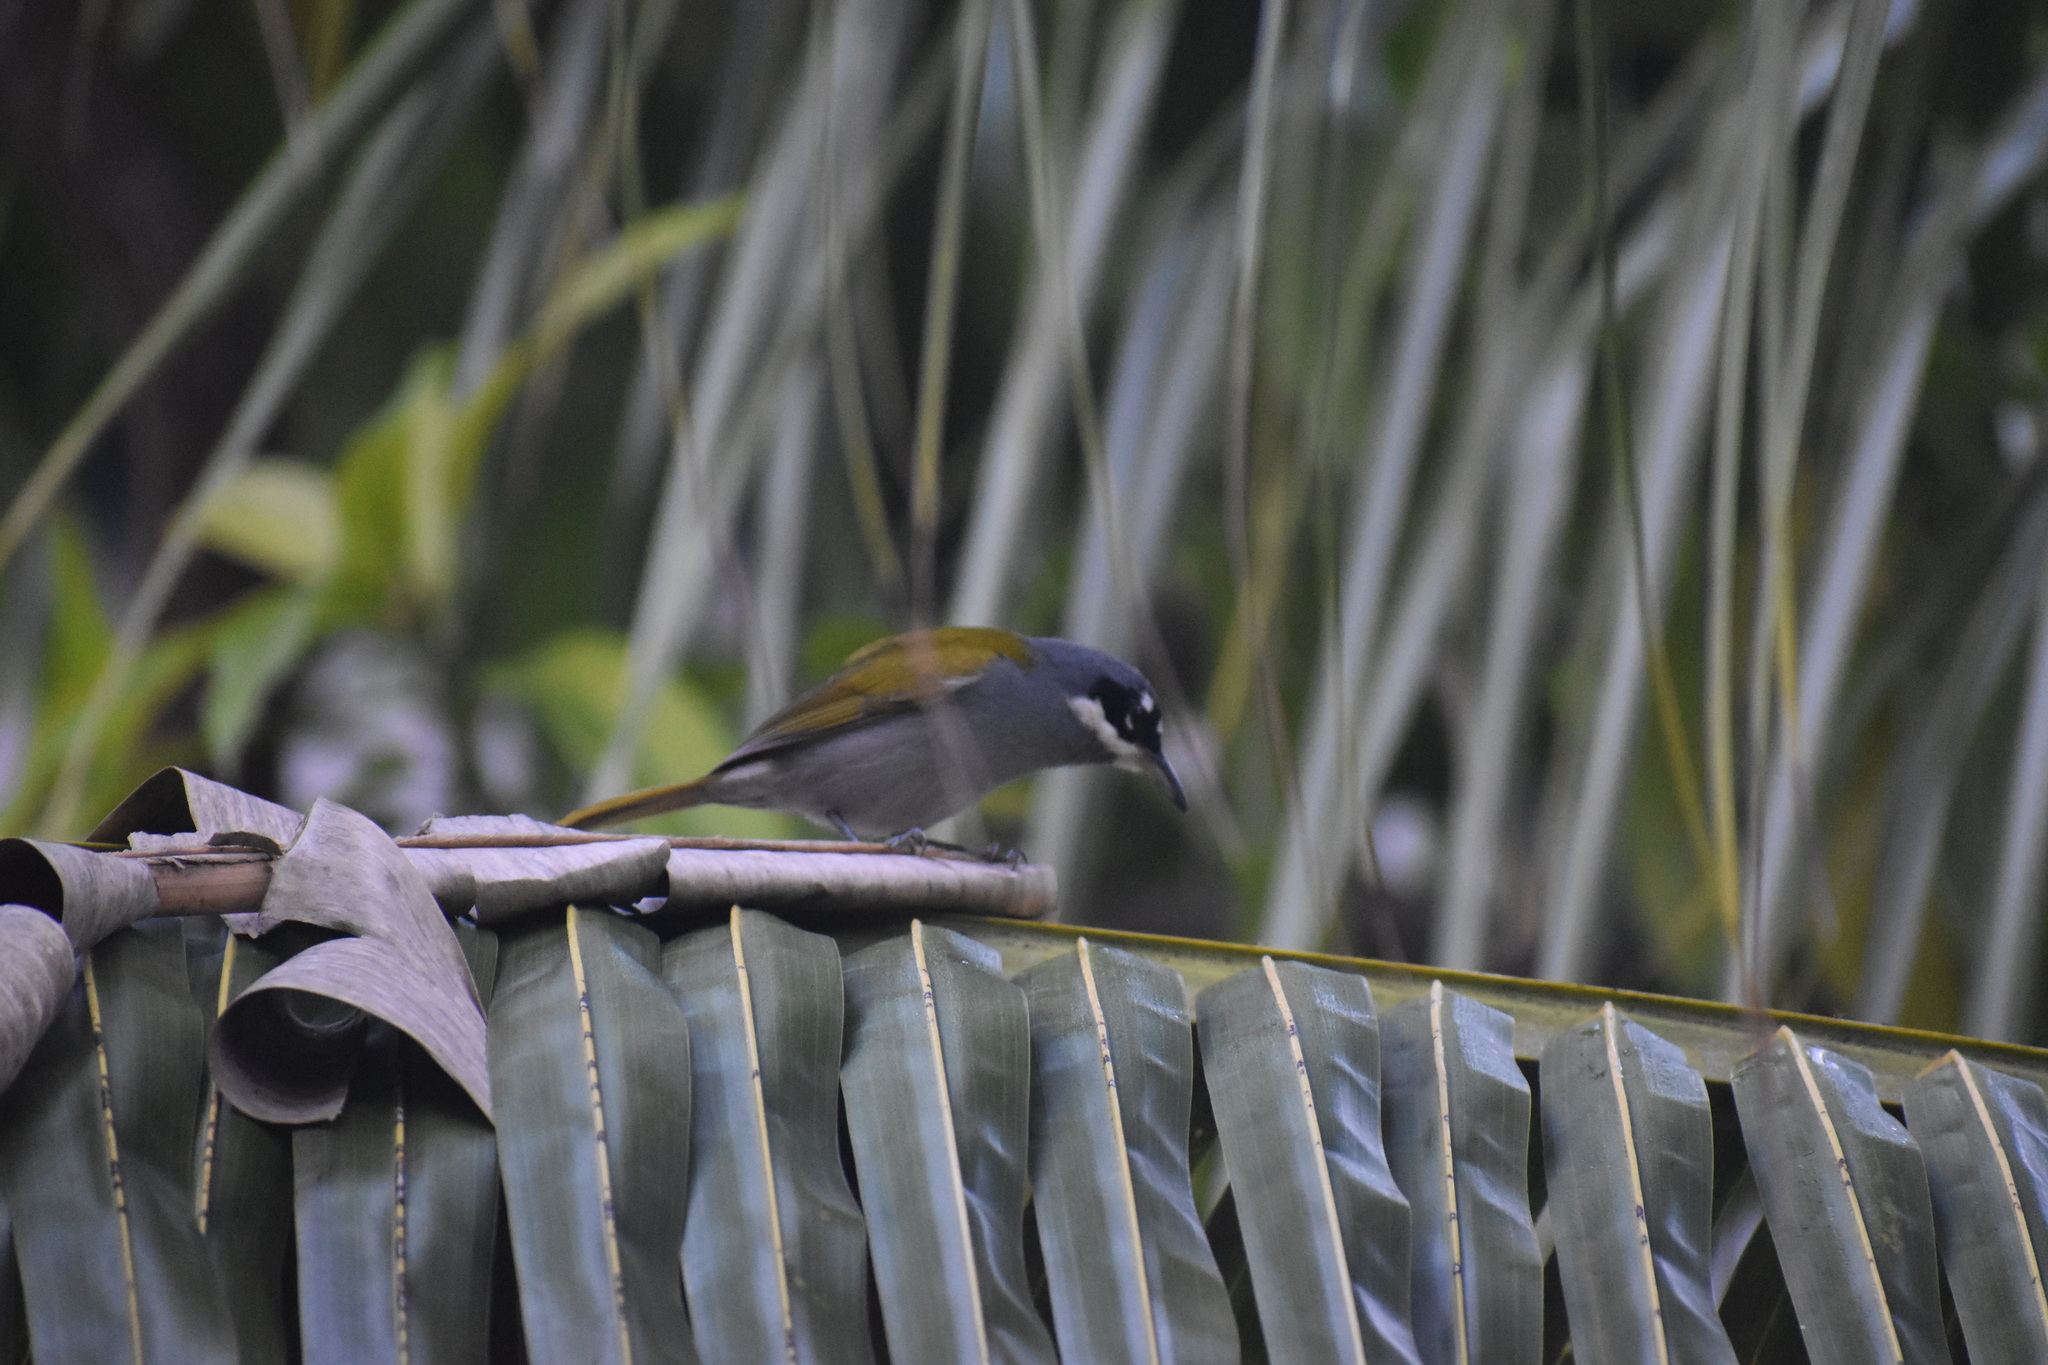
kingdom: Animalia
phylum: Chordata
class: Aves
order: Passeriformes
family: Phaenicophilidae
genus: Phaenicophilus
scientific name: Phaenicophilus poliocephalus
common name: Grey-crowned tanager
